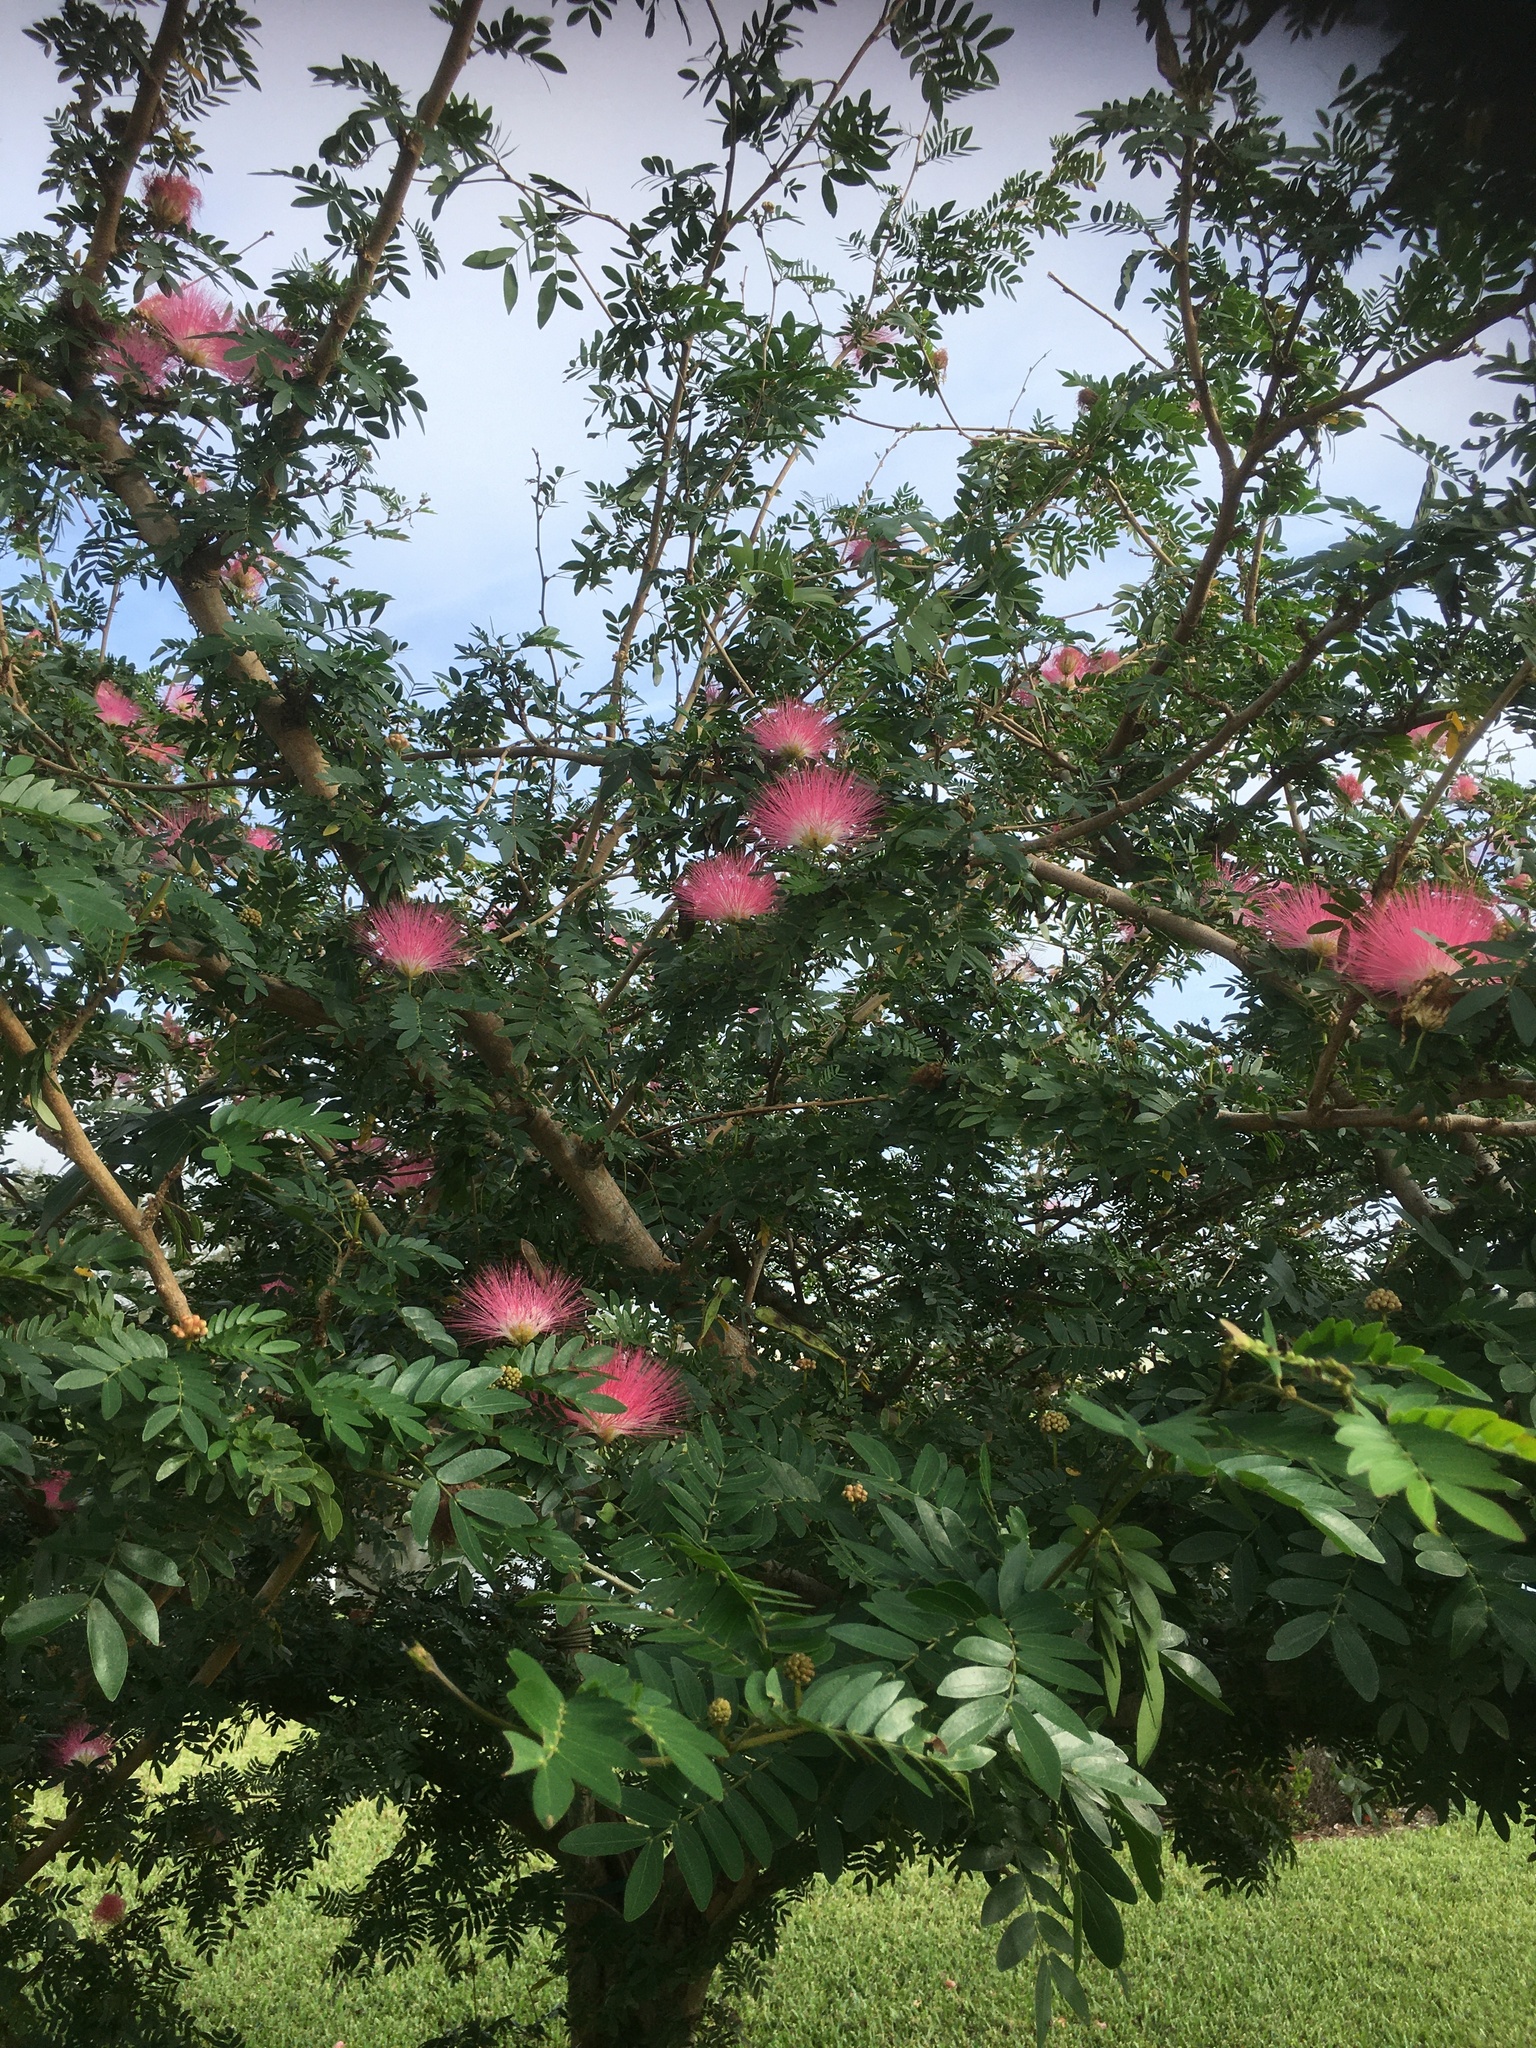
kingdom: Plantae
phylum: Tracheophyta
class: Magnoliopsida
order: Fabales
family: Fabaceae
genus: Albizia
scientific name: Albizia julibrissin
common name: Silktree
